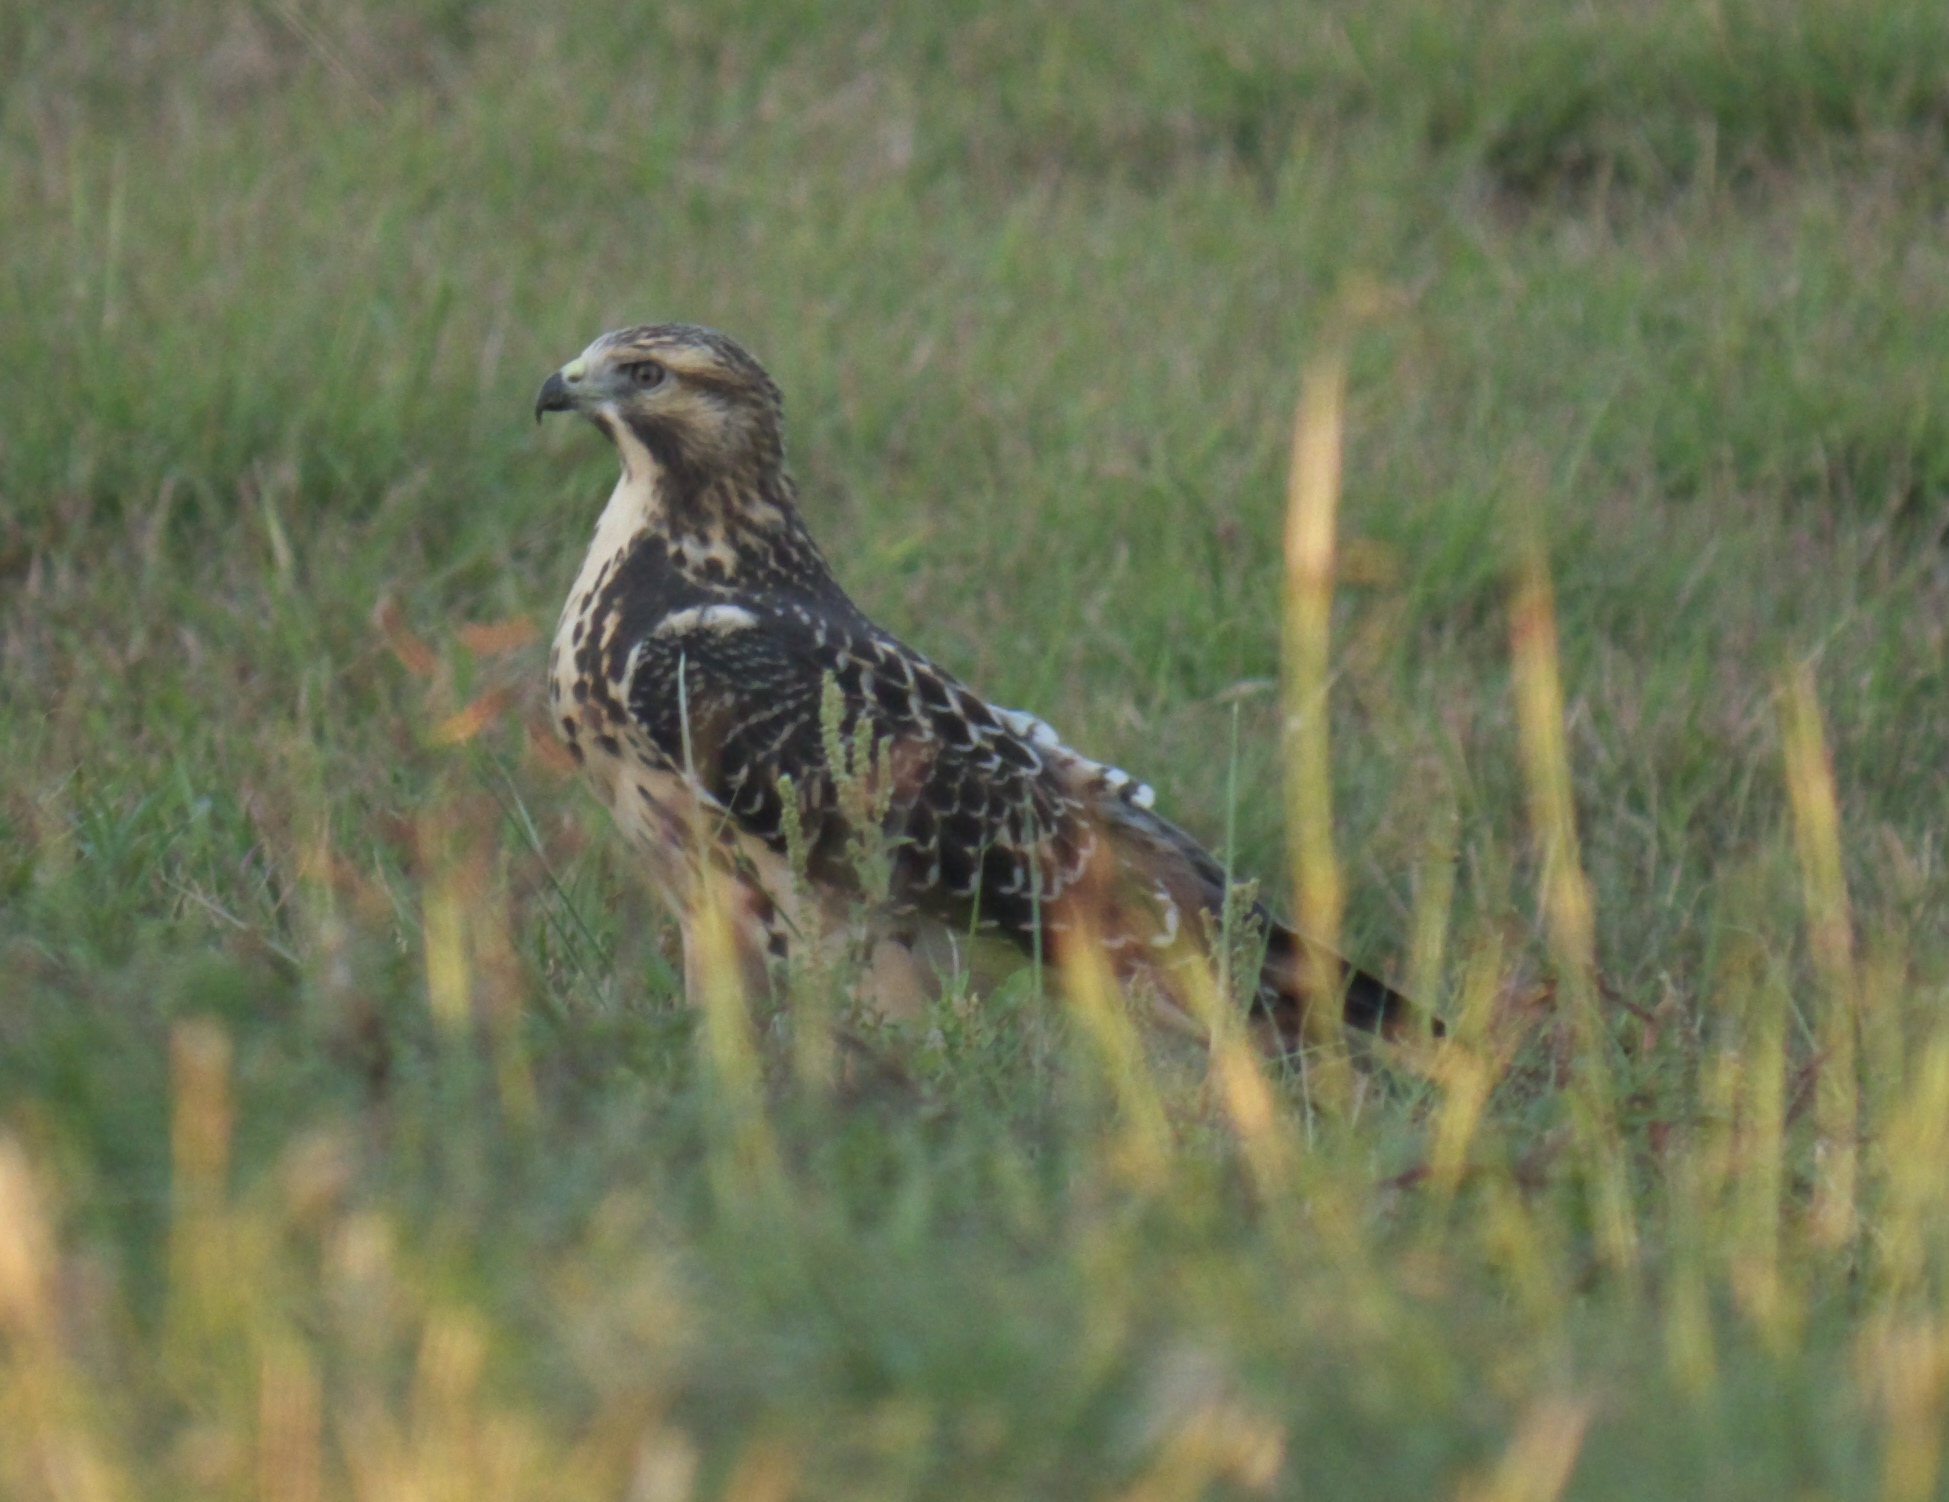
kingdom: Animalia
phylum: Chordata
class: Aves
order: Accipitriformes
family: Accipitridae
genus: Buteo
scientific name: Buteo swainsoni
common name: Swainson's hawk
